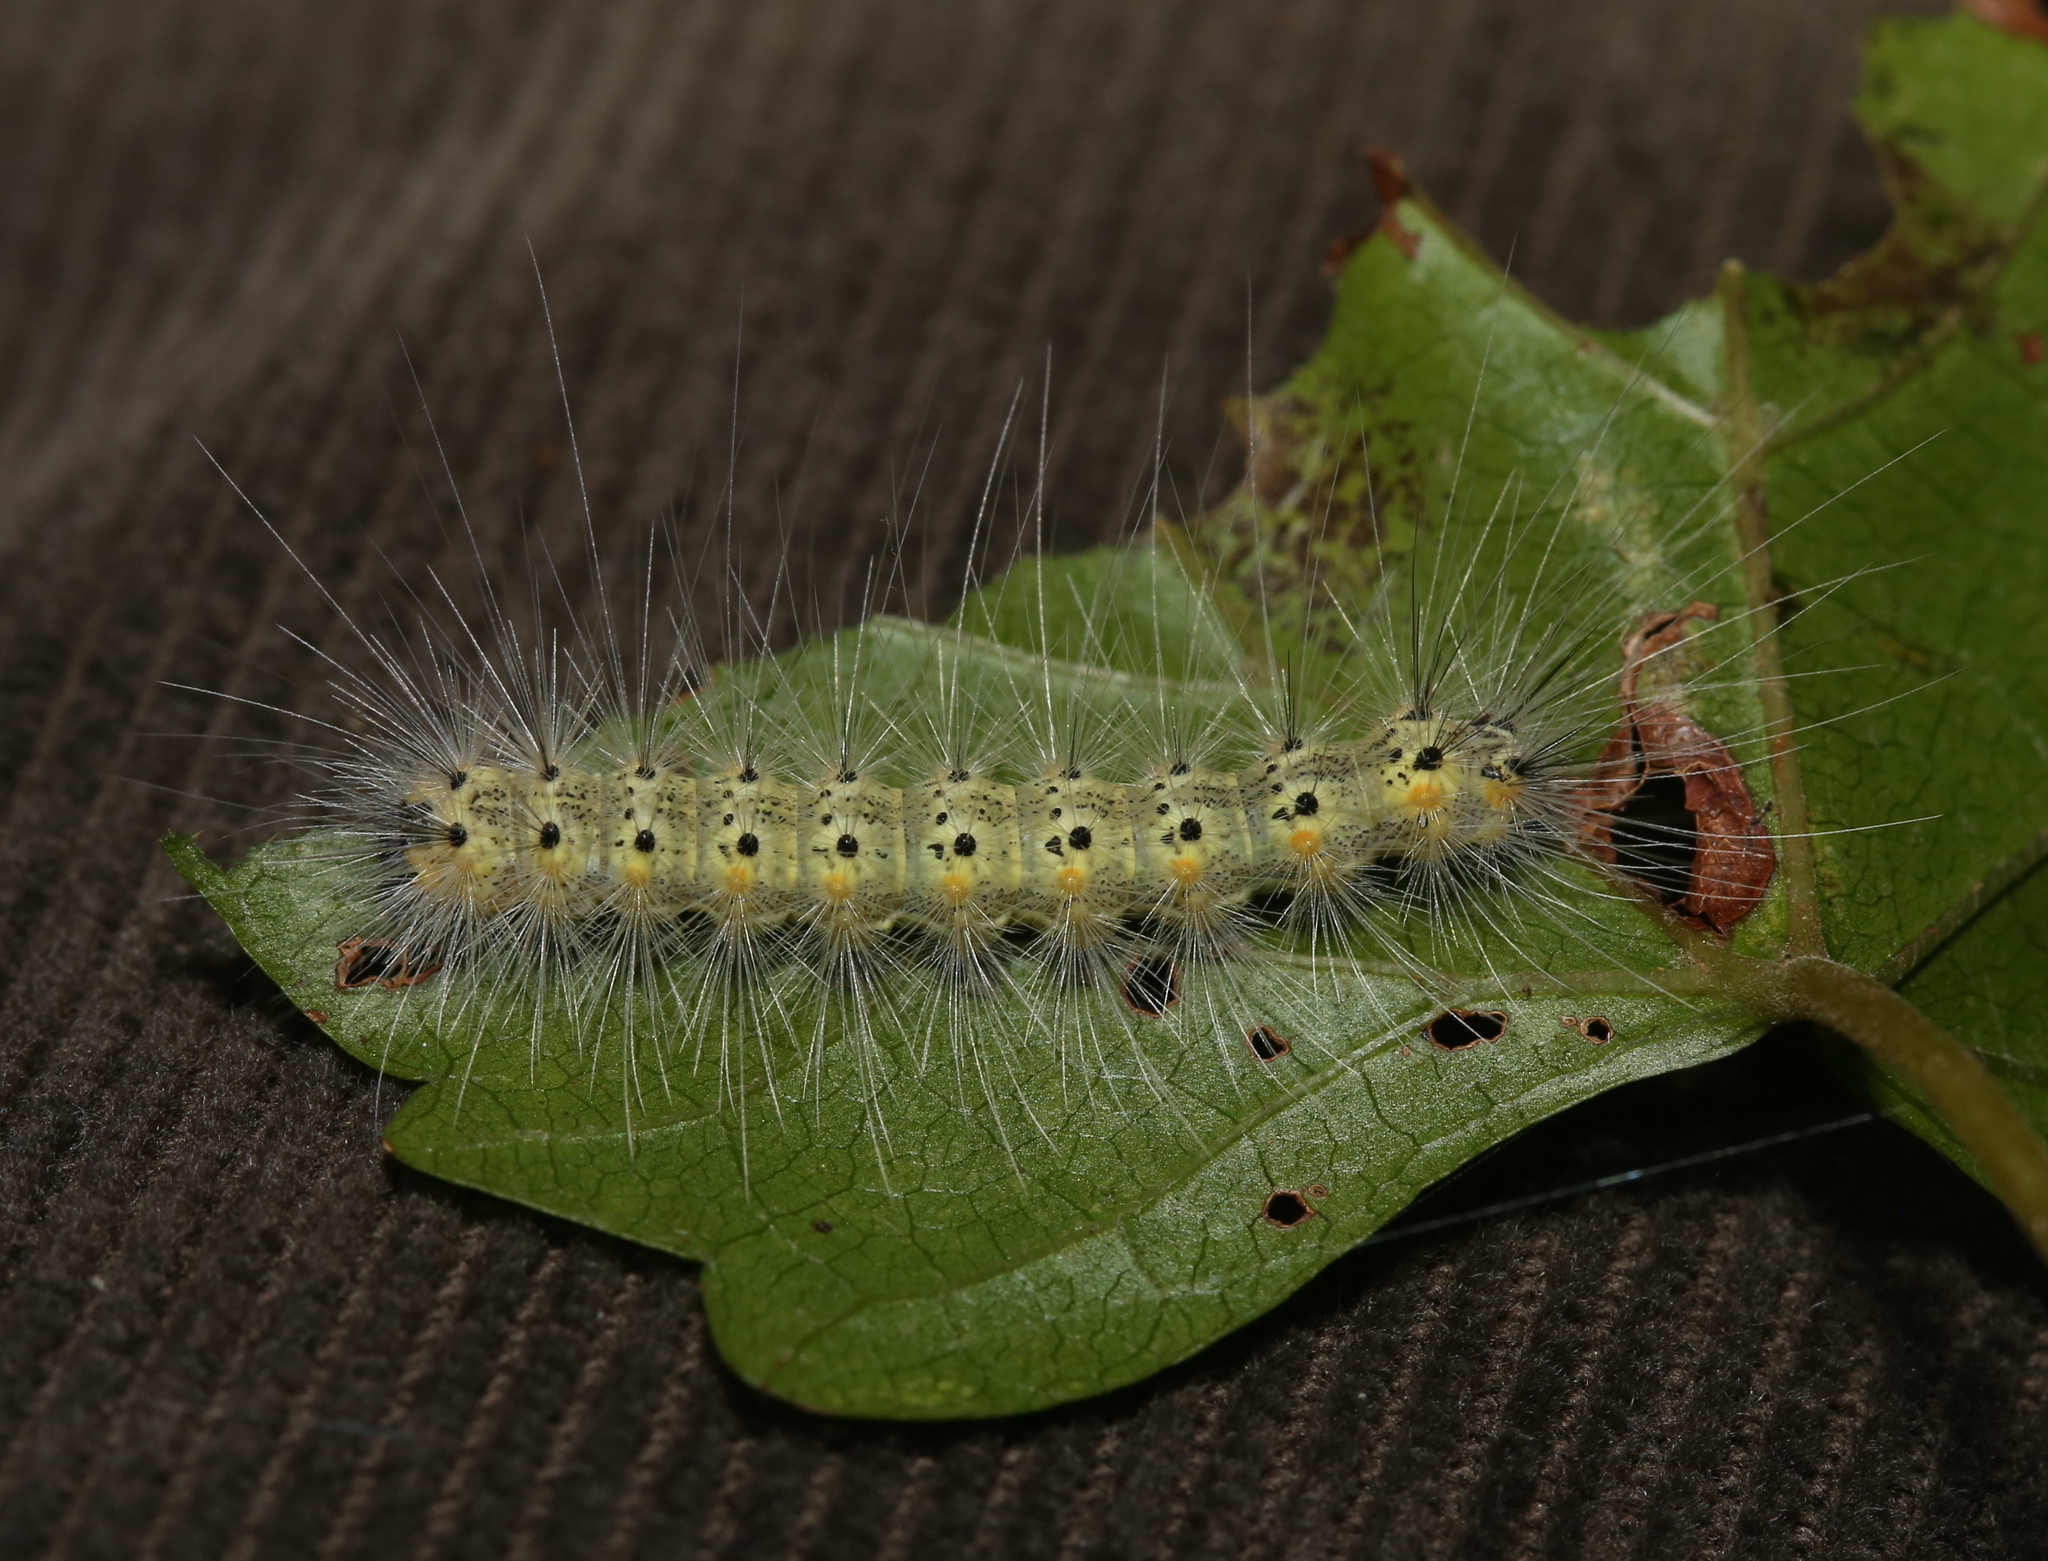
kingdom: Animalia
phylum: Arthropoda
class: Insecta
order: Lepidoptera
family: Erebidae
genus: Hyphantria
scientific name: Hyphantria cunea
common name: American white moth
